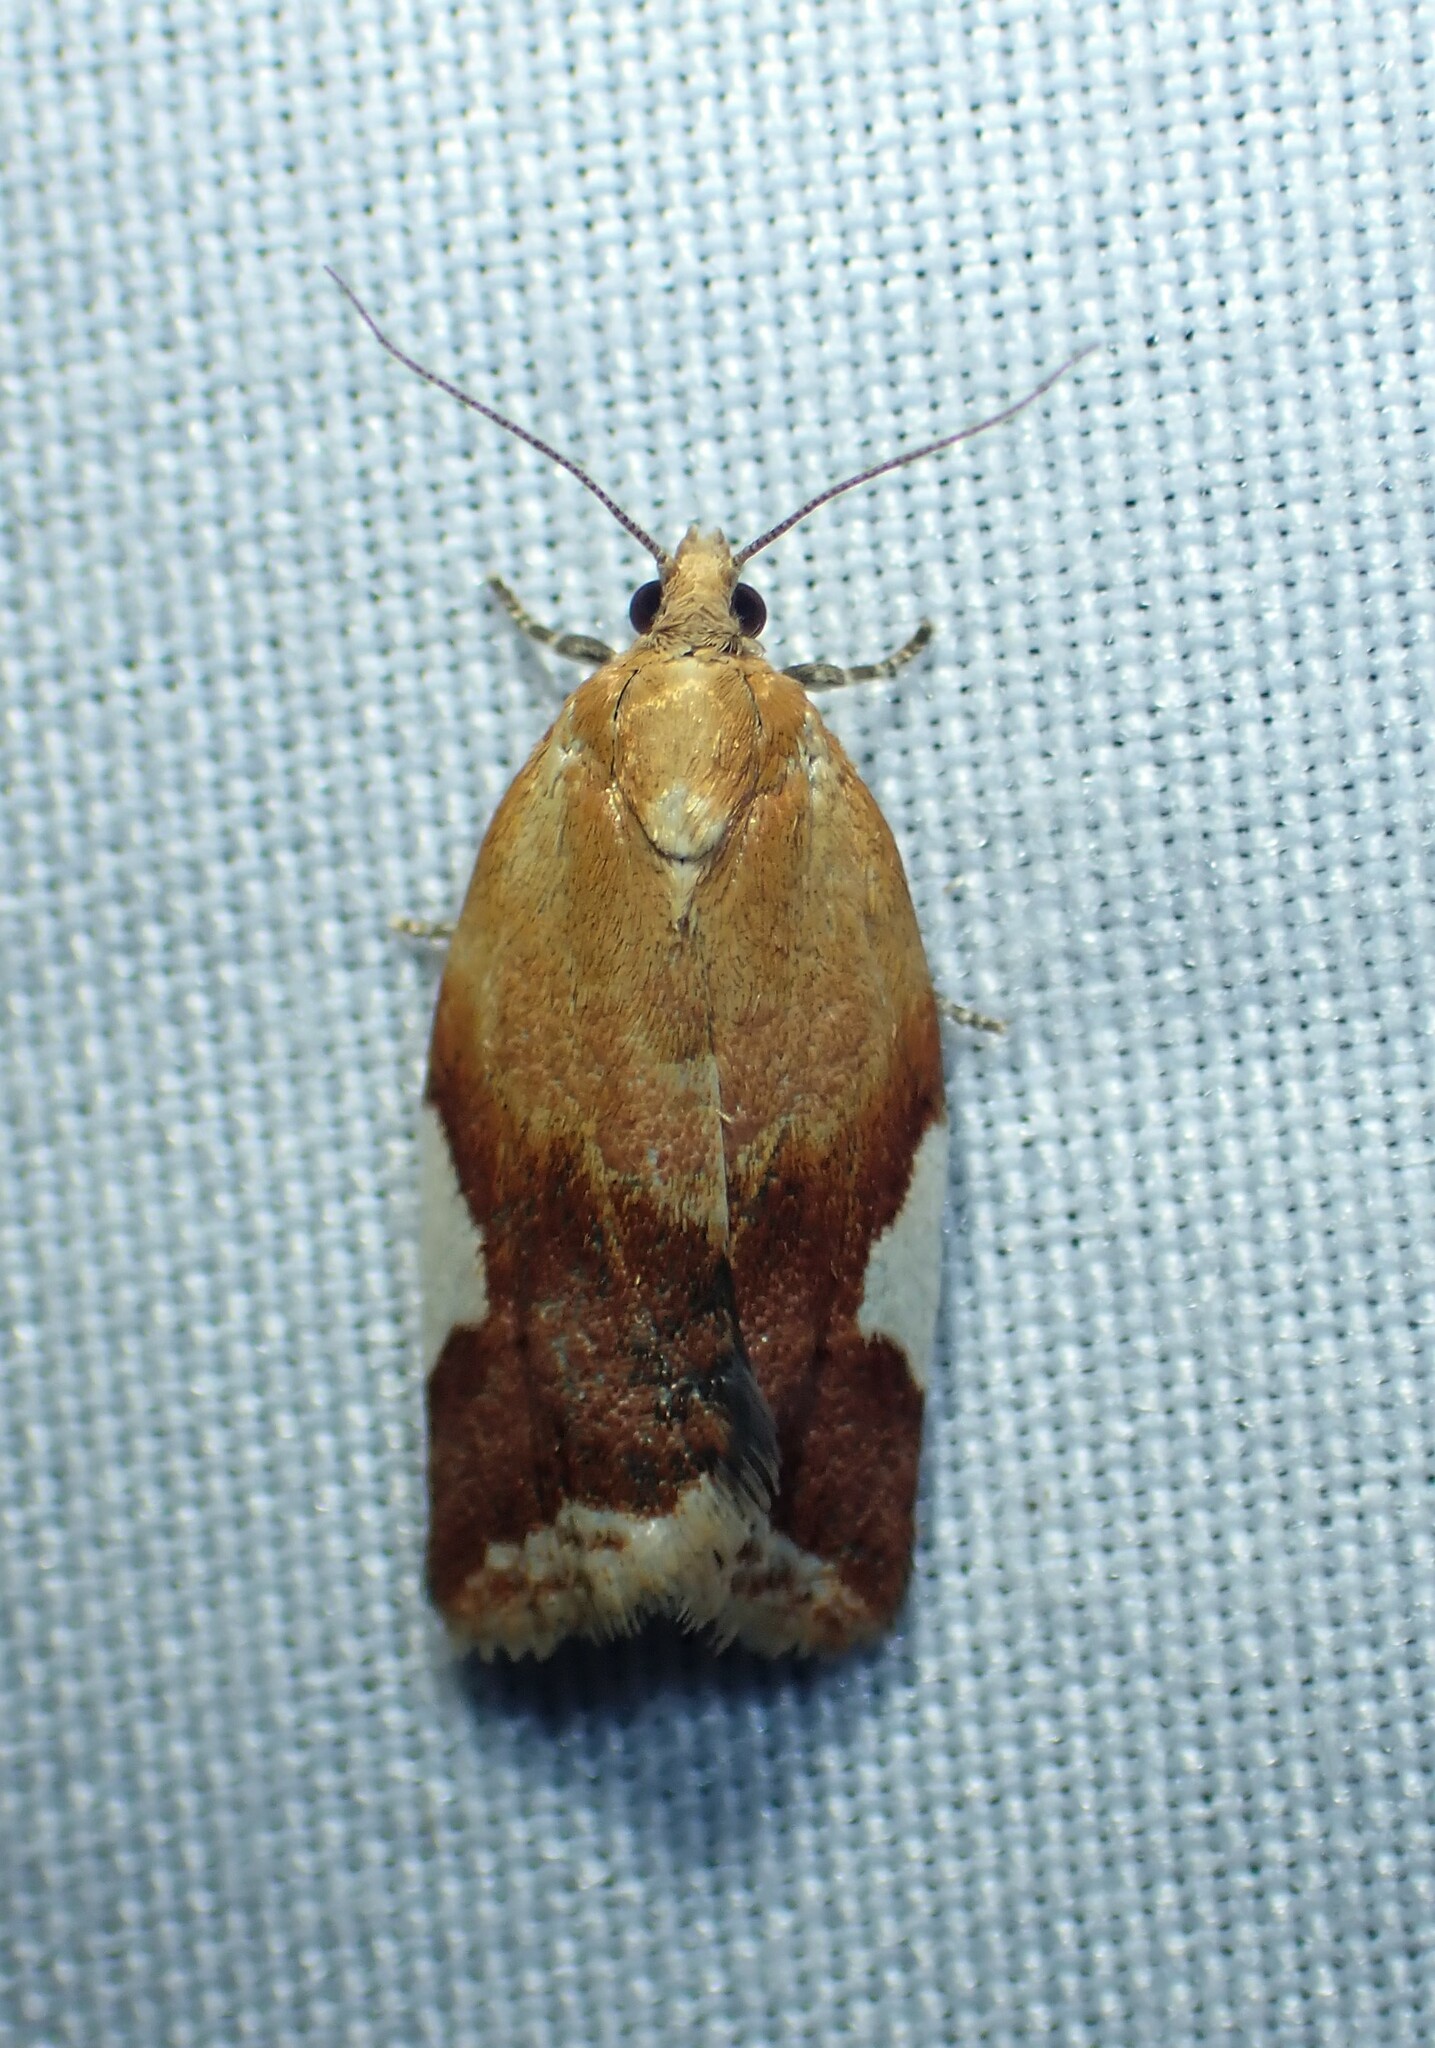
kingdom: Animalia
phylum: Arthropoda
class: Insecta
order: Lepidoptera
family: Tortricidae
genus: Clepsis
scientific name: Clepsis persicana
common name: White triangle tortrix
